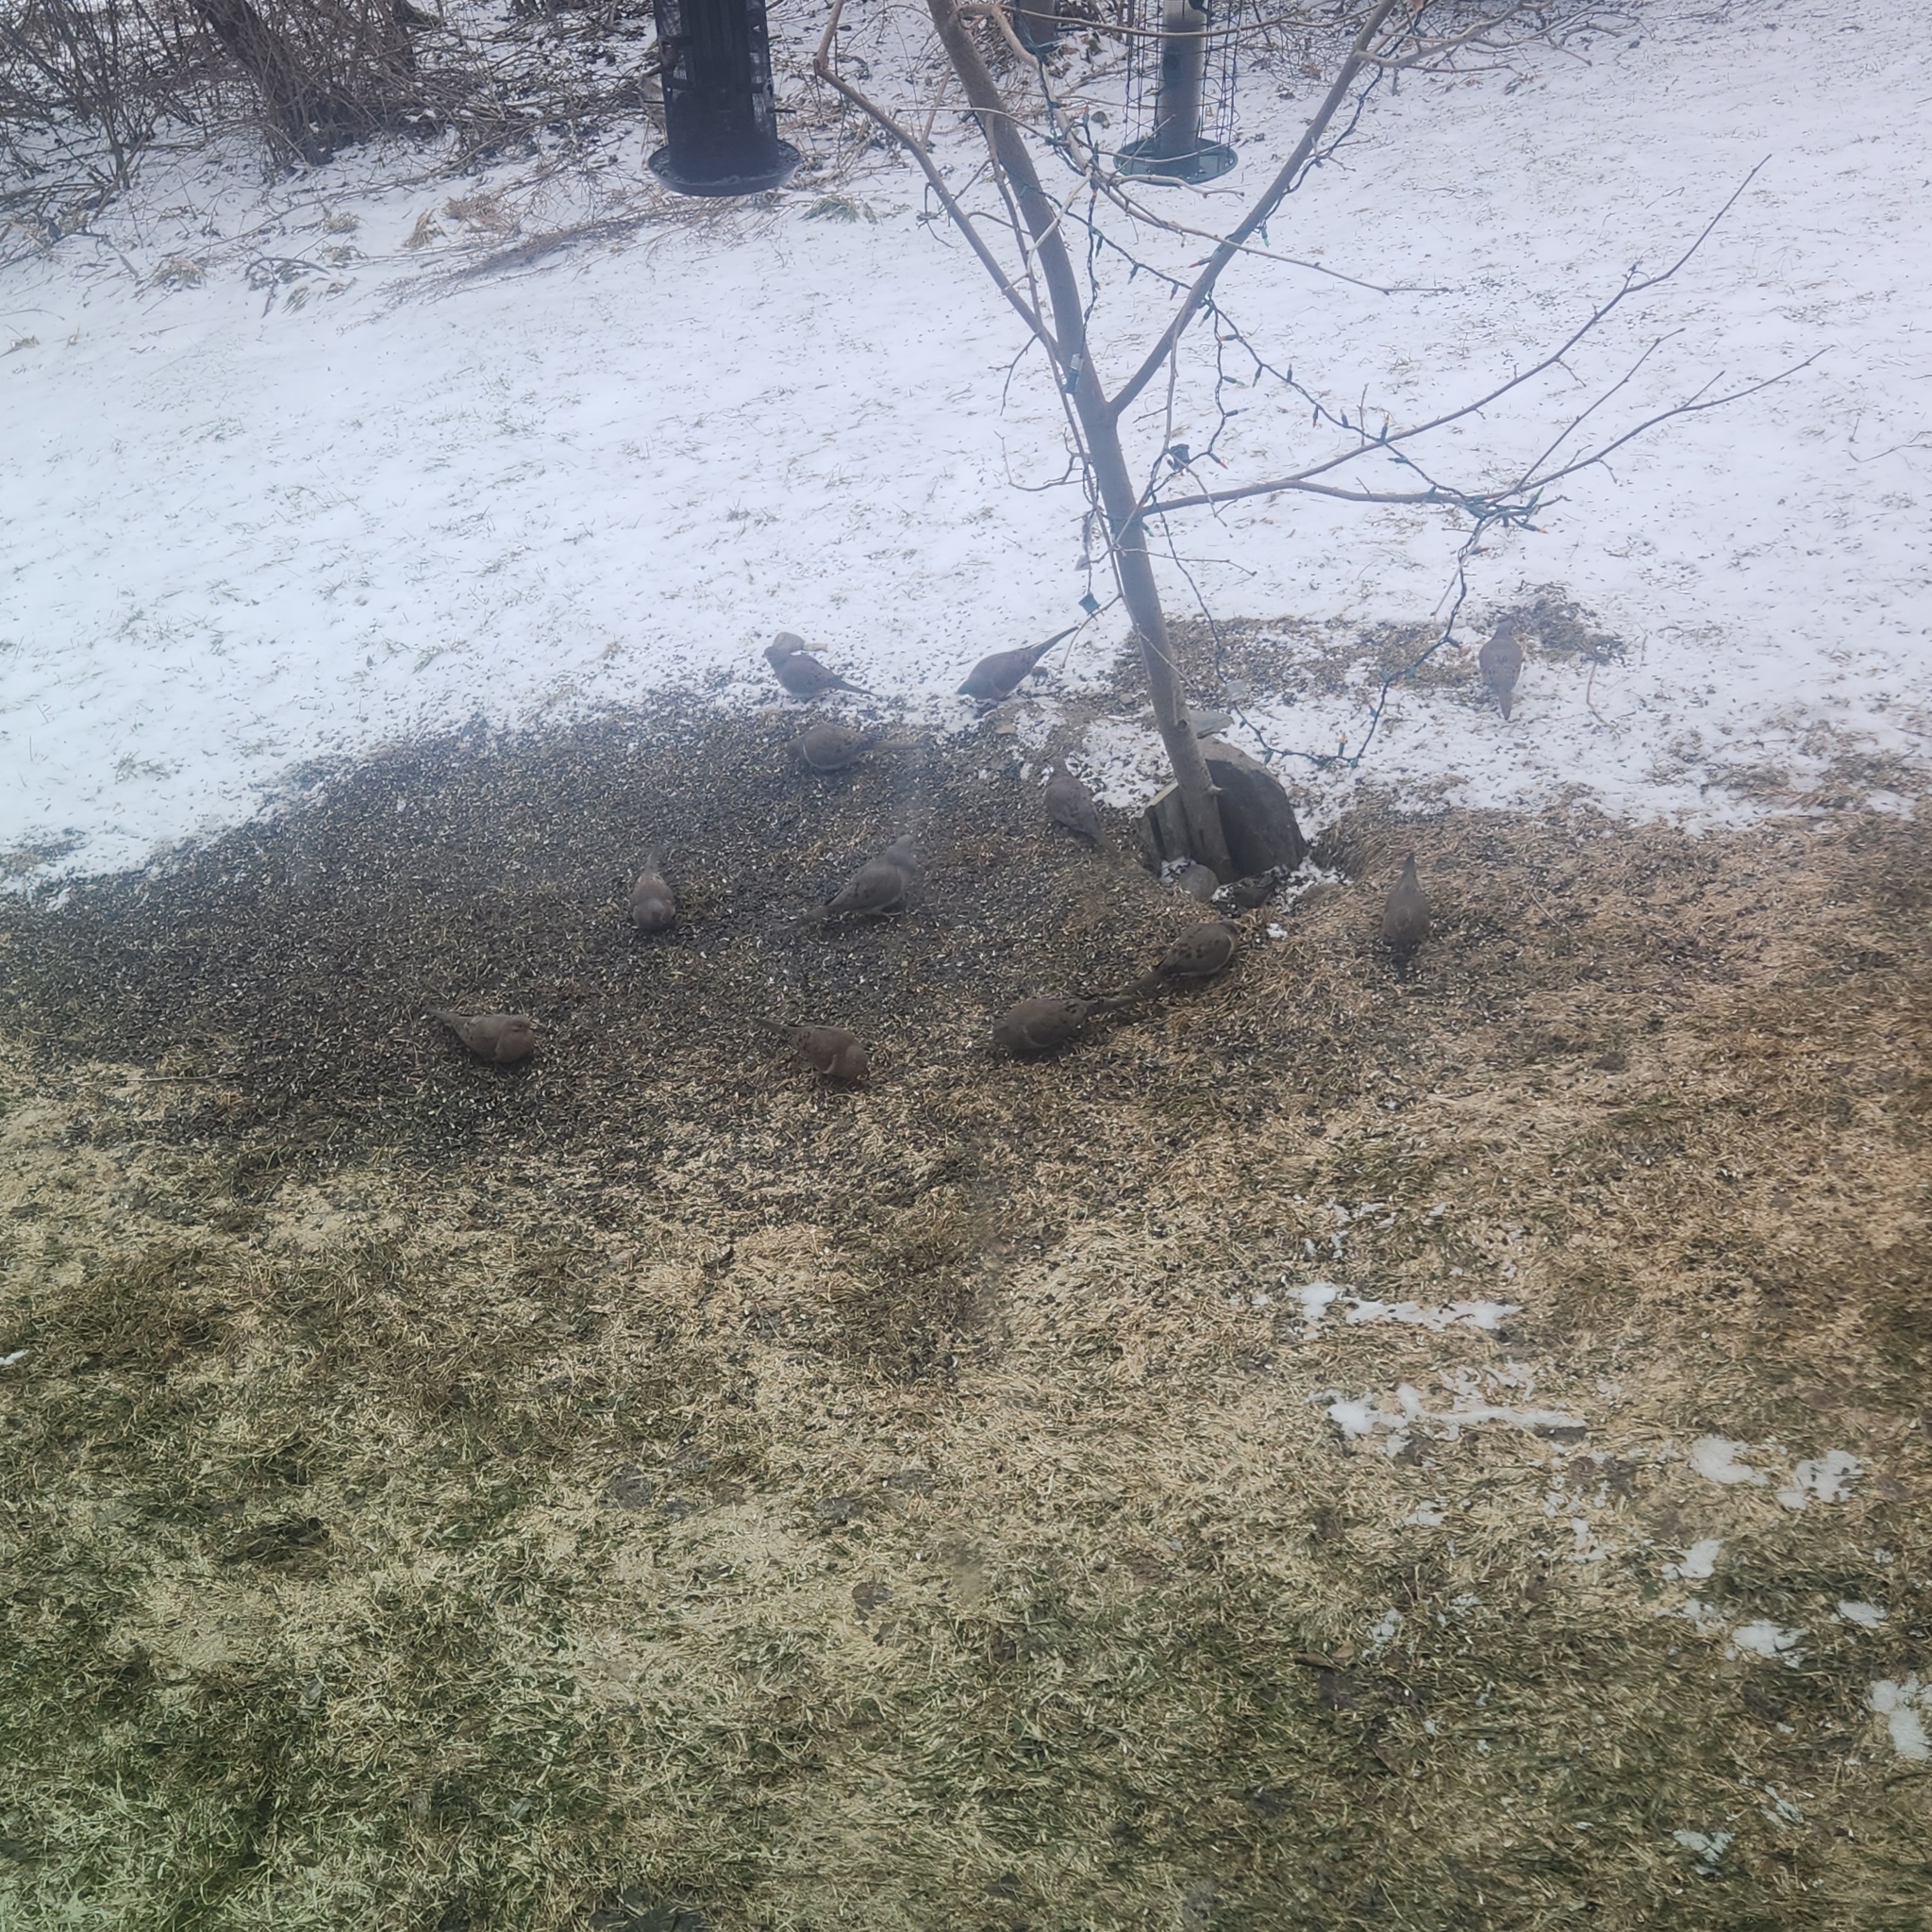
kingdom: Animalia
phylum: Chordata
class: Aves
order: Columbiformes
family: Columbidae
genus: Zenaida
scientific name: Zenaida macroura
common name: Mourning dove
